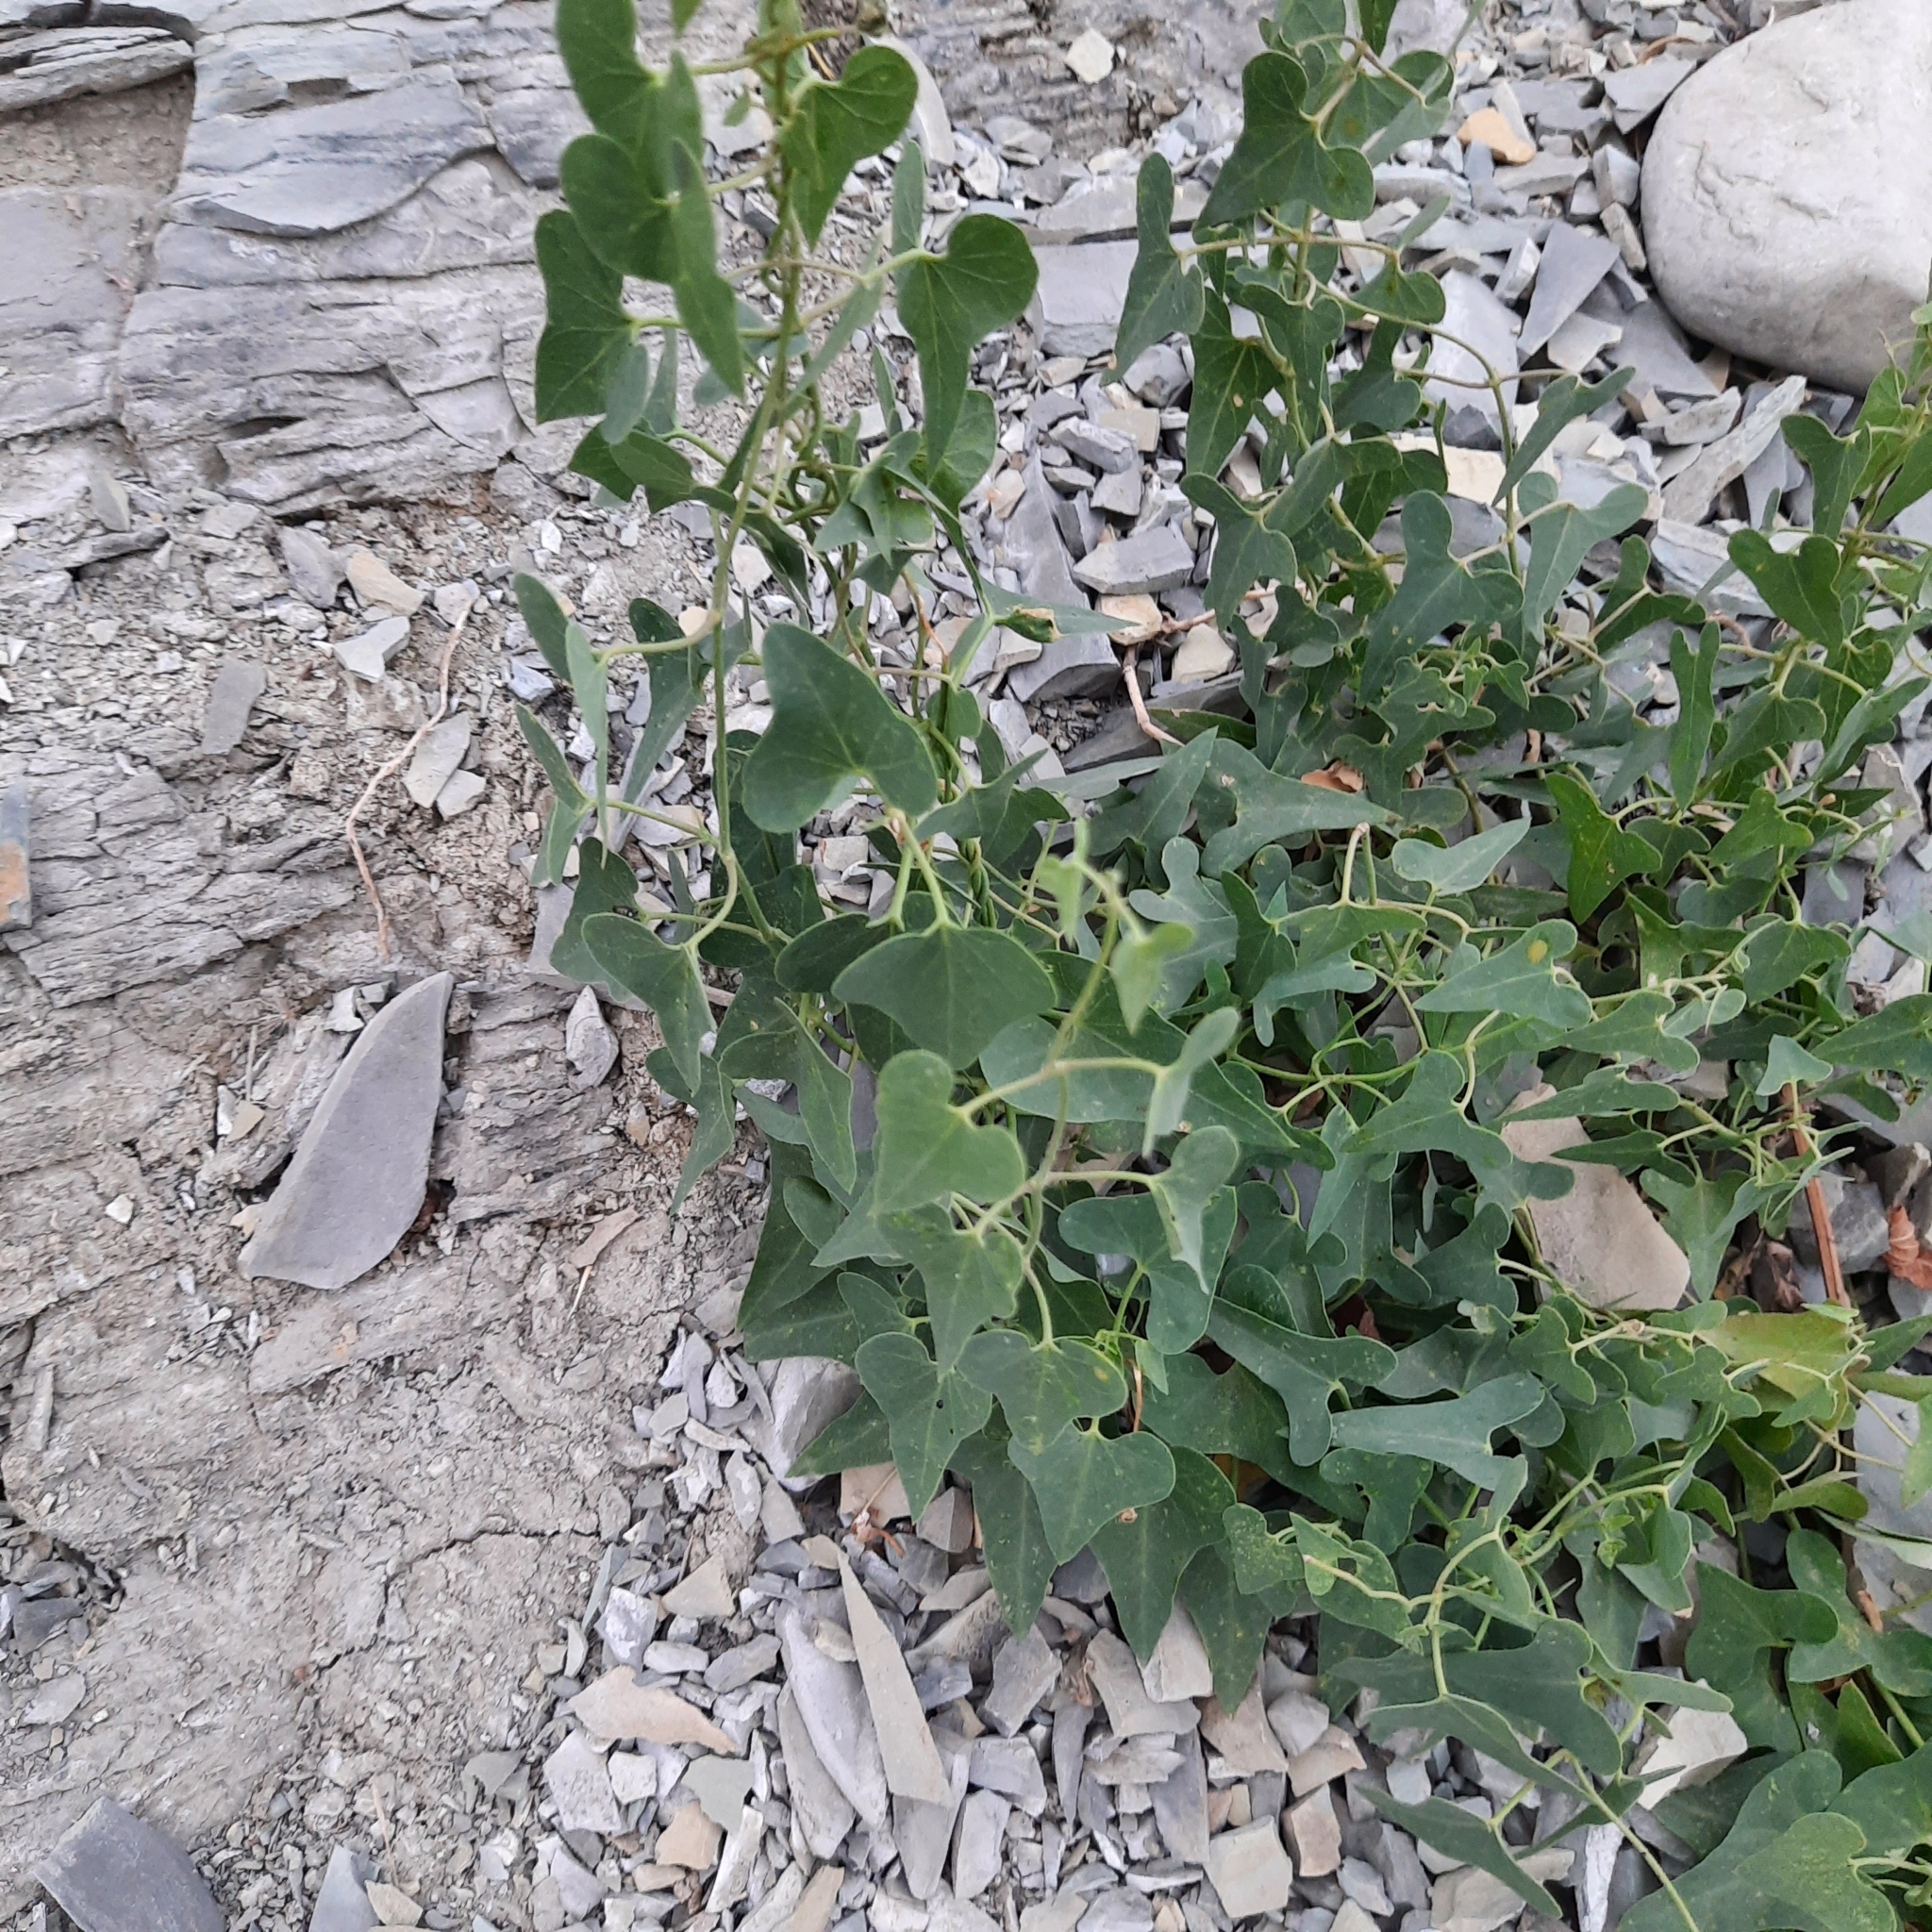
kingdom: Plantae
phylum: Tracheophyta
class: Magnoliopsida
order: Gentianales
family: Apocynaceae
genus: Cynanchum
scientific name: Cynanchum acutum
